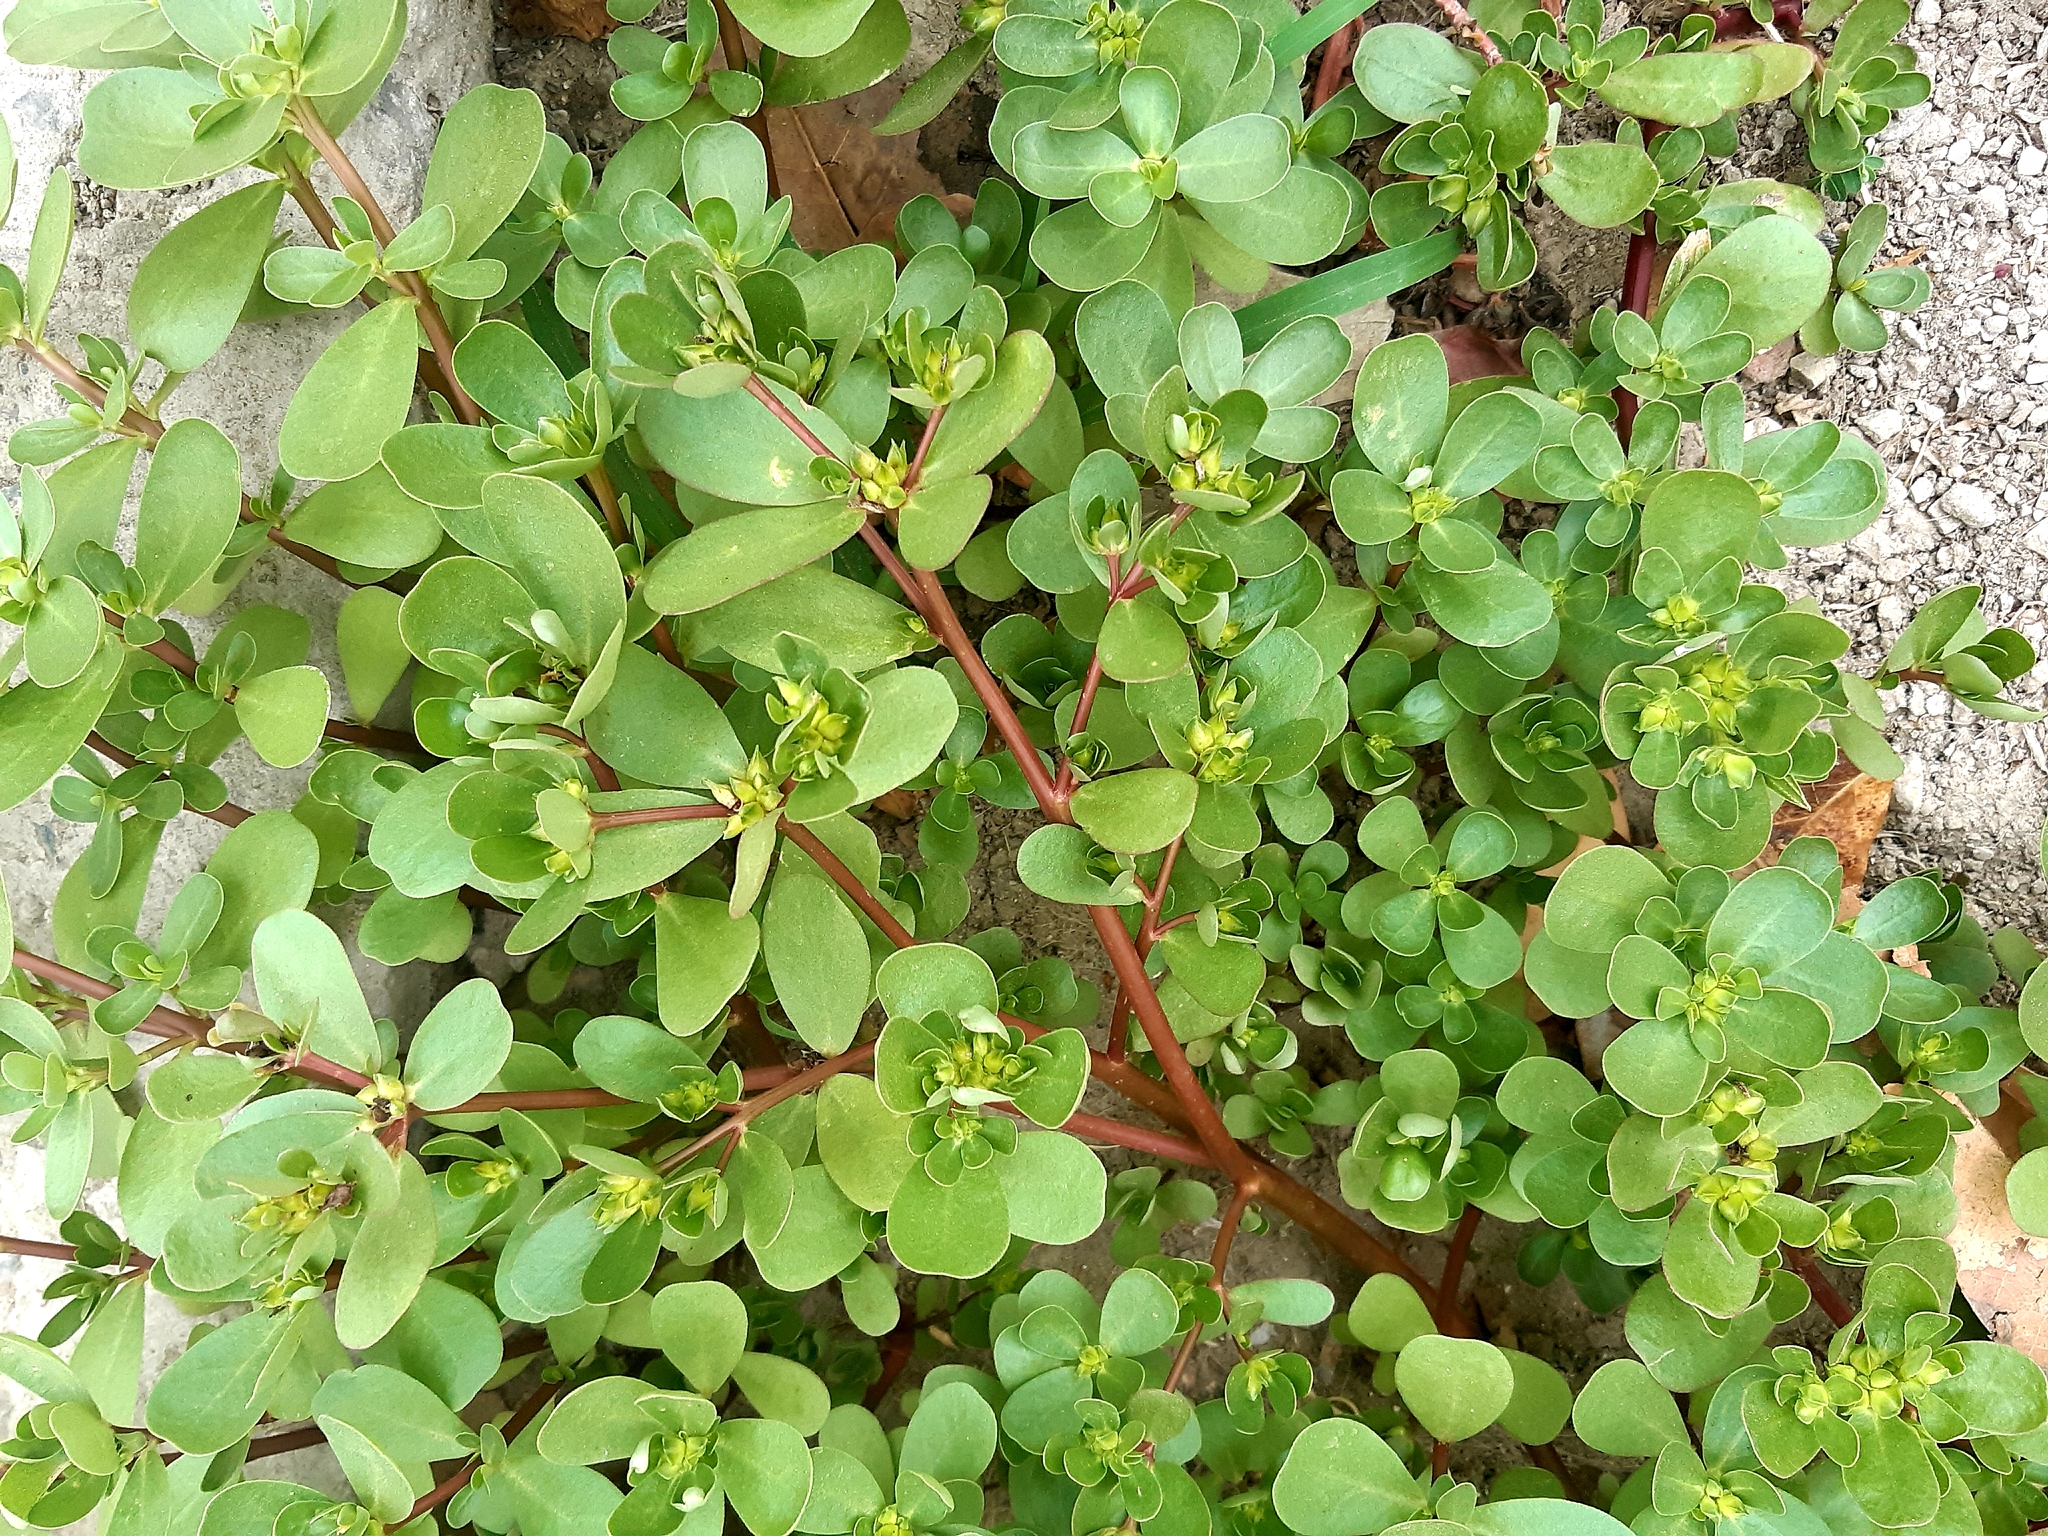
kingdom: Plantae
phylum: Tracheophyta
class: Magnoliopsida
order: Caryophyllales
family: Portulacaceae
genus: Portulaca
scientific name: Portulaca oleracea
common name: Common purslane
